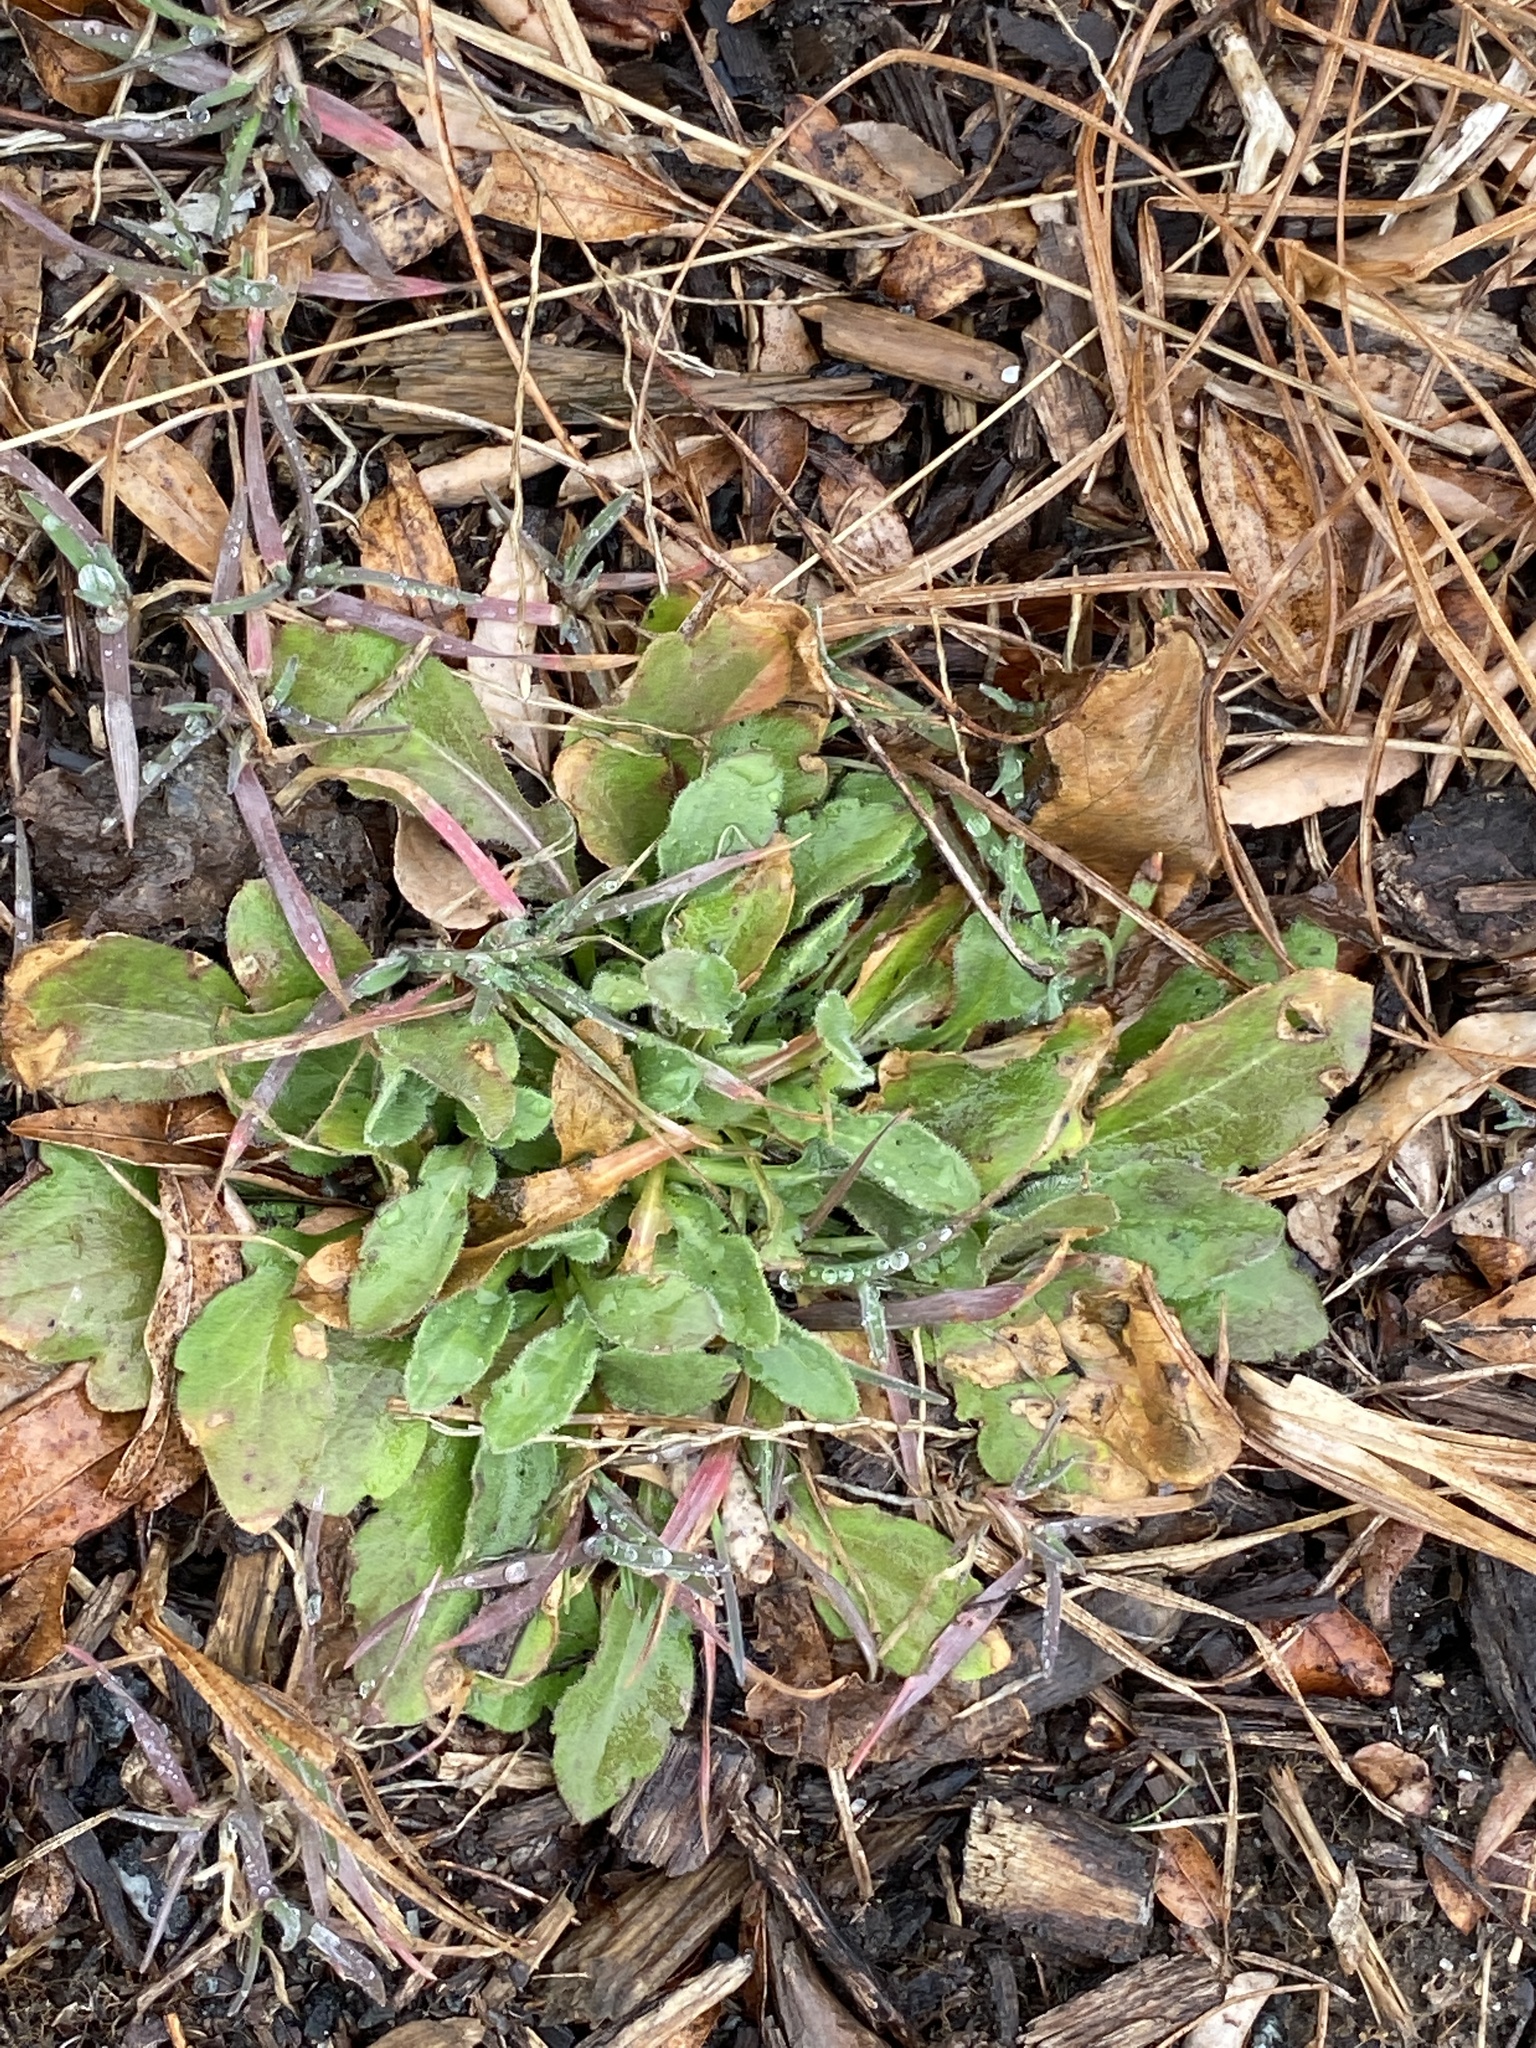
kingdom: Plantae
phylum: Tracheophyta
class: Magnoliopsida
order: Asterales
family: Asteraceae
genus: Erigeron
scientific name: Erigeron canadensis
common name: Canadian fleabane
